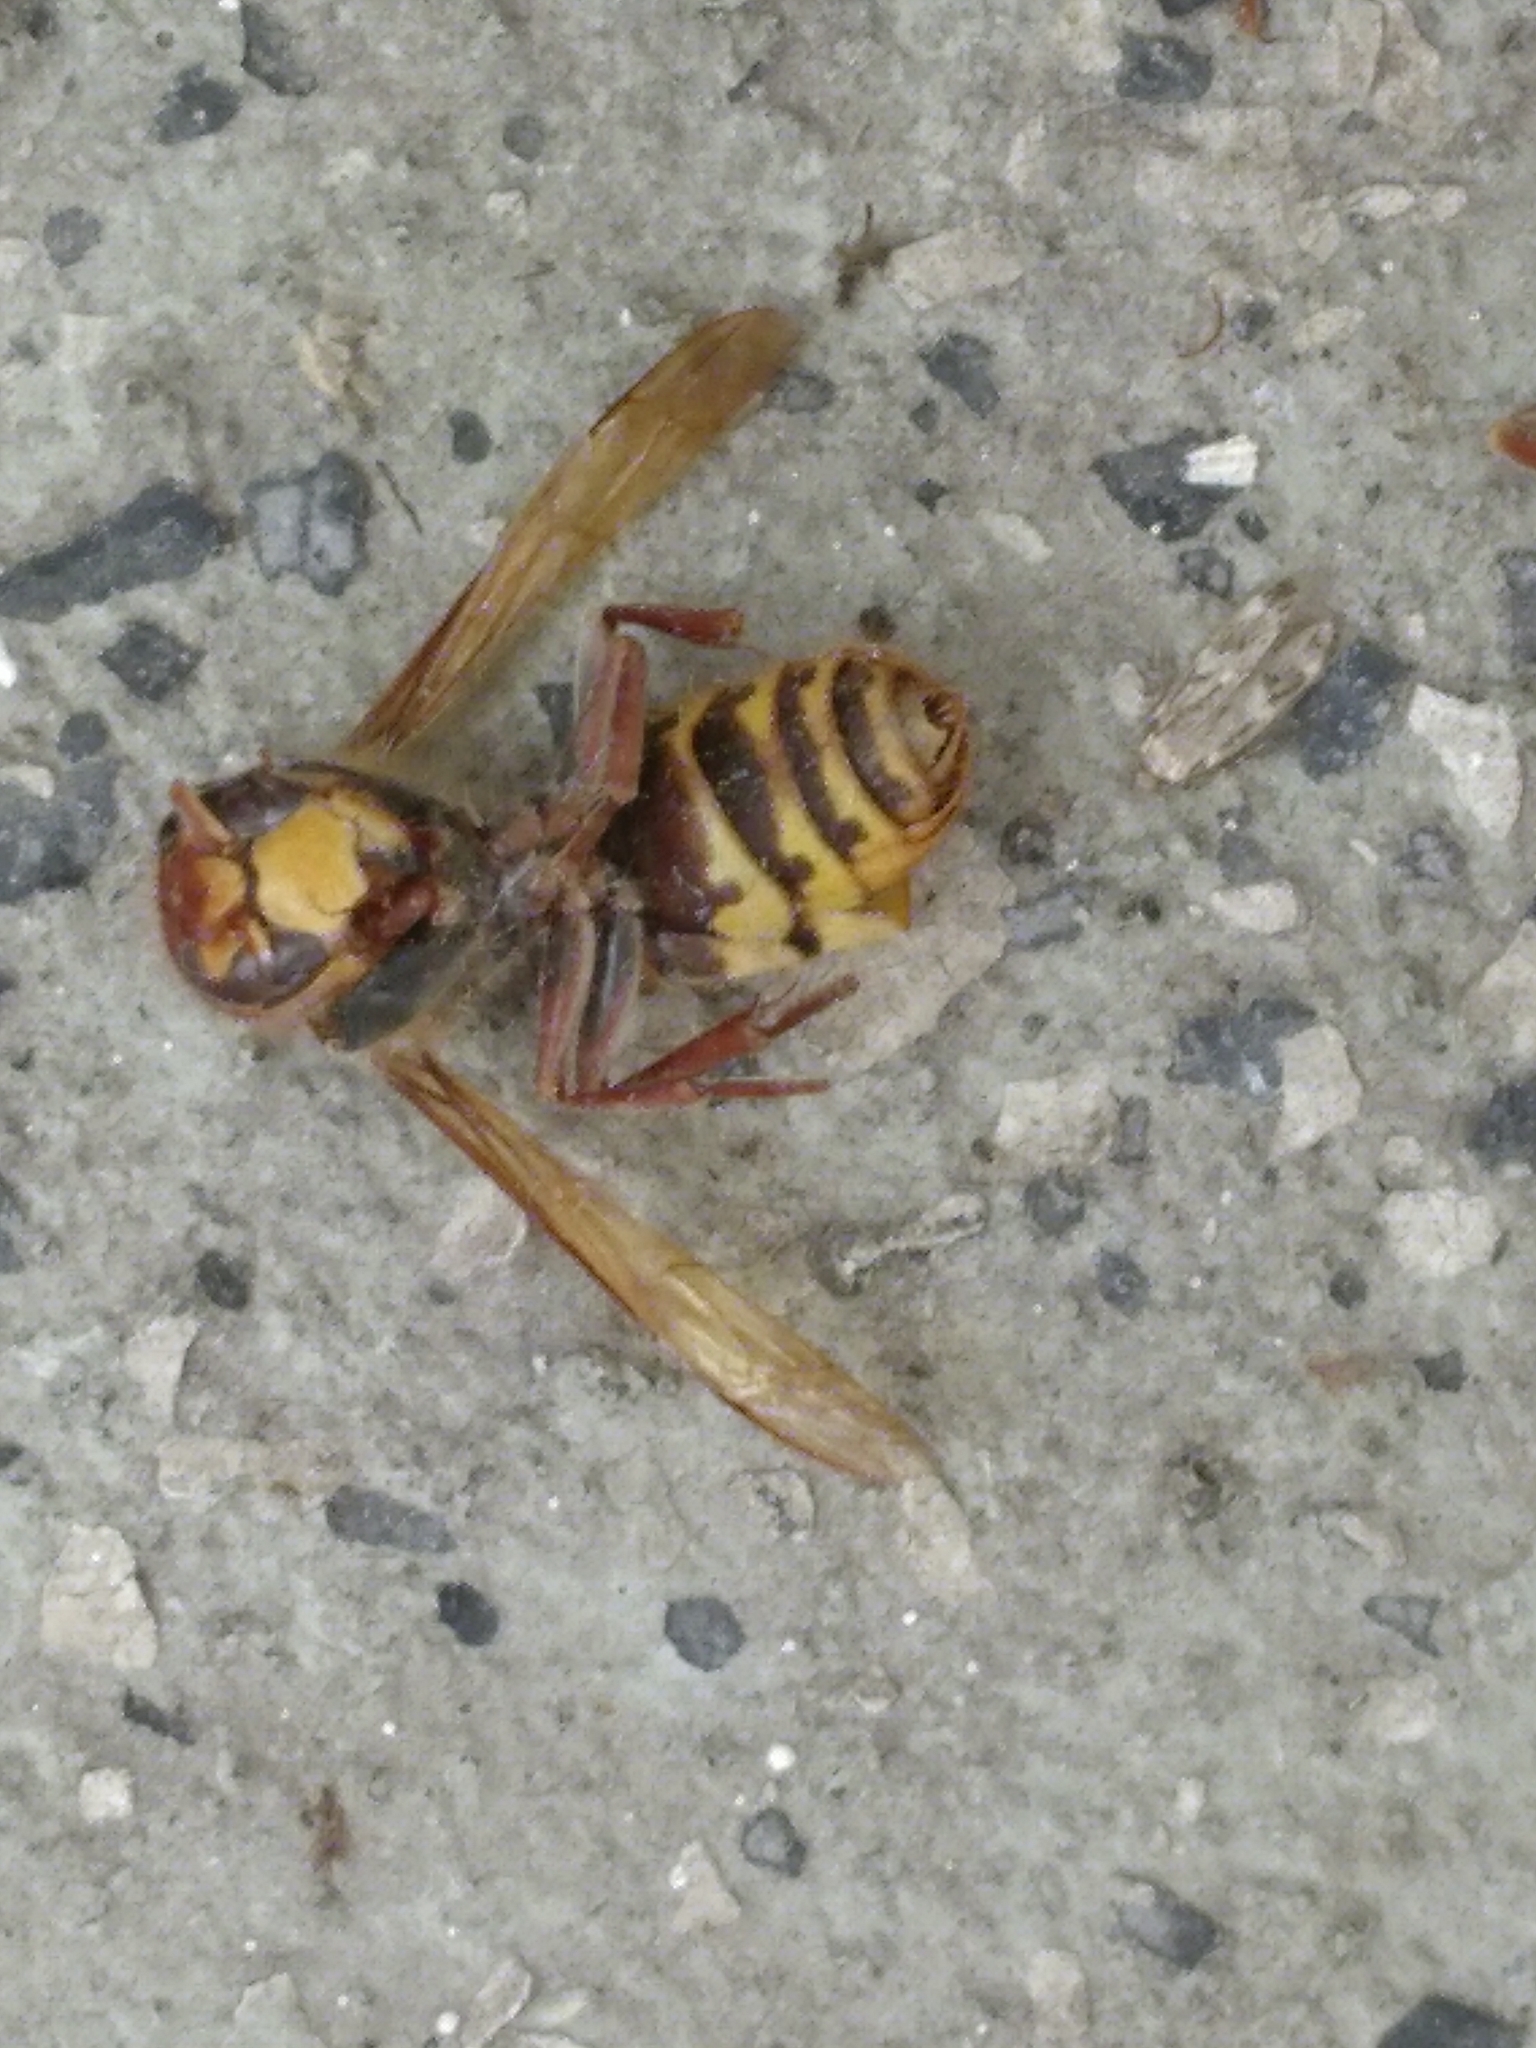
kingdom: Animalia
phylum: Arthropoda
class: Insecta
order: Hymenoptera
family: Vespidae
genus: Vespa
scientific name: Vespa crabro
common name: Hornet
